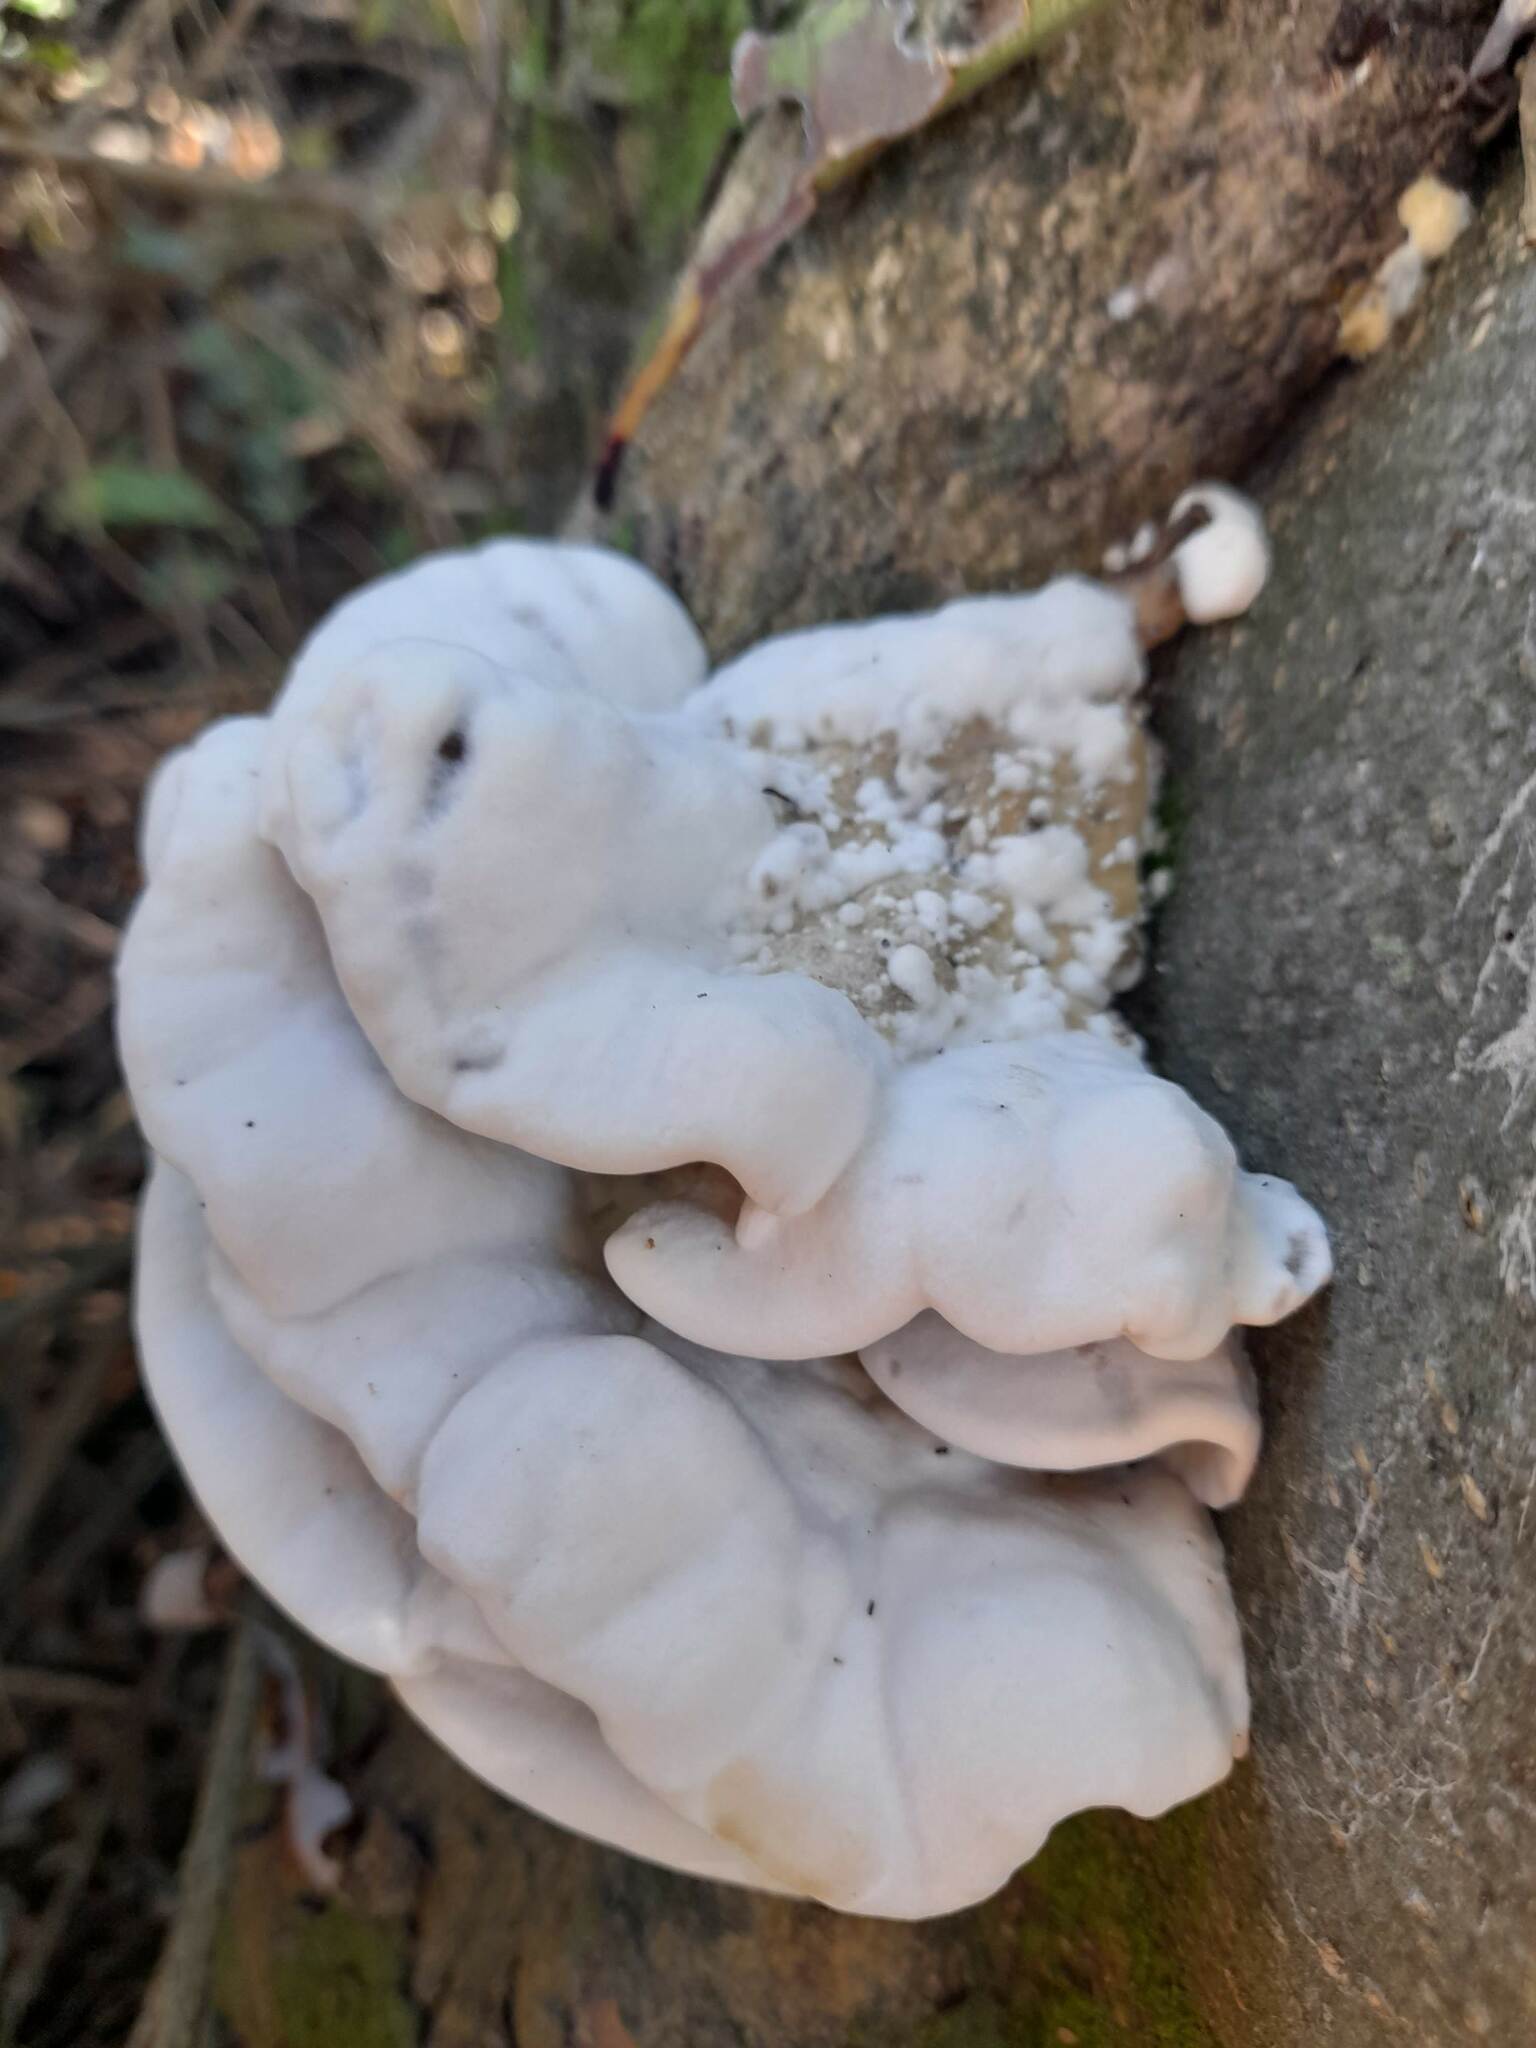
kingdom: Fungi
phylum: Basidiomycota
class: Agaricomycetes
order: Polyporales
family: Phanerochaetaceae
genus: Bjerkandera
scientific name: Bjerkandera adusta
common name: Smoky bracket
